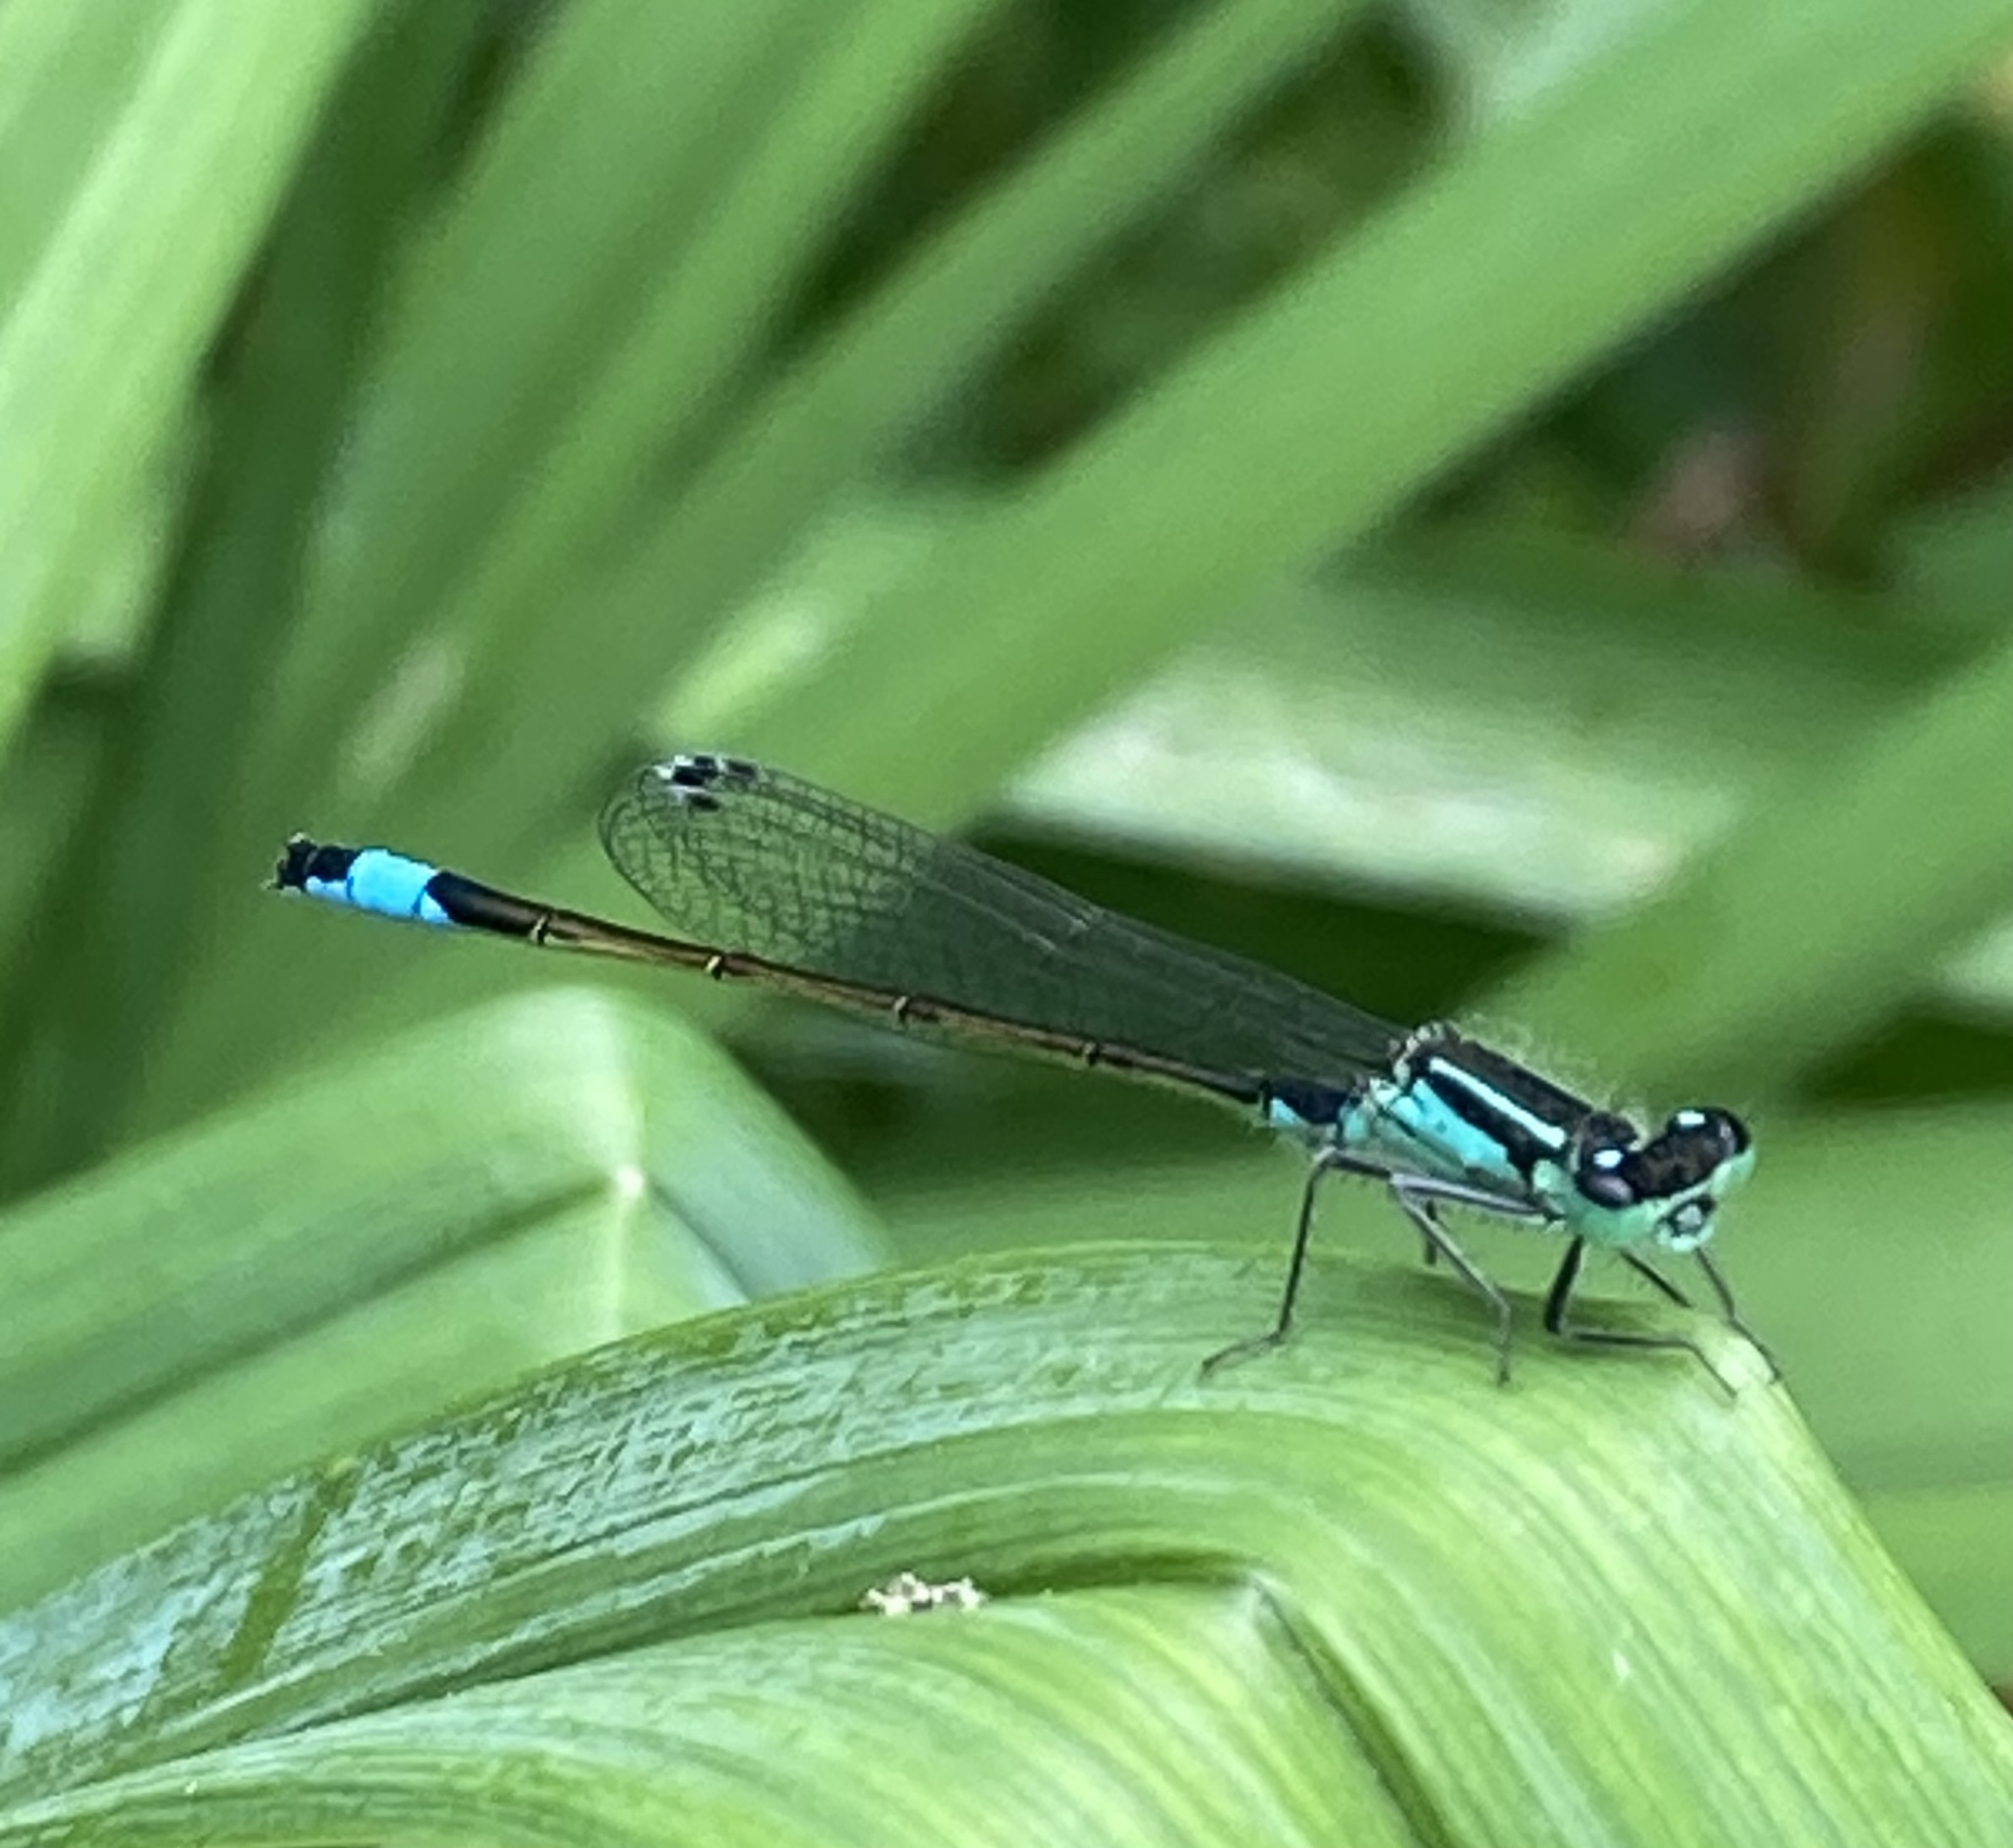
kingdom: Animalia
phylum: Arthropoda
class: Insecta
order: Odonata
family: Coenagrionidae
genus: Ischnura
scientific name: Ischnura elegans
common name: Blue-tailed damselfly
